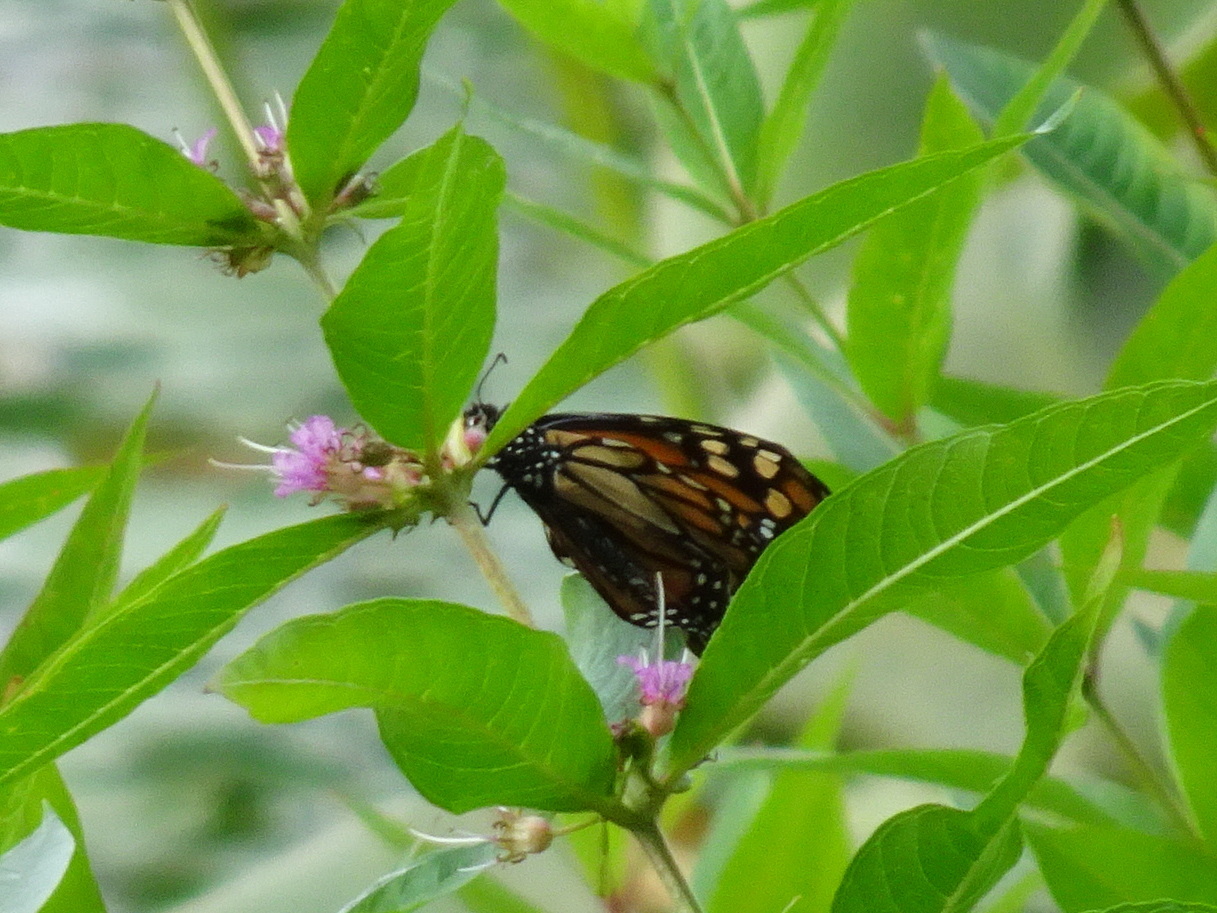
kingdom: Animalia
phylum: Arthropoda
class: Insecta
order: Lepidoptera
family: Nymphalidae
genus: Danaus
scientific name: Danaus plexippus
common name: Monarch
